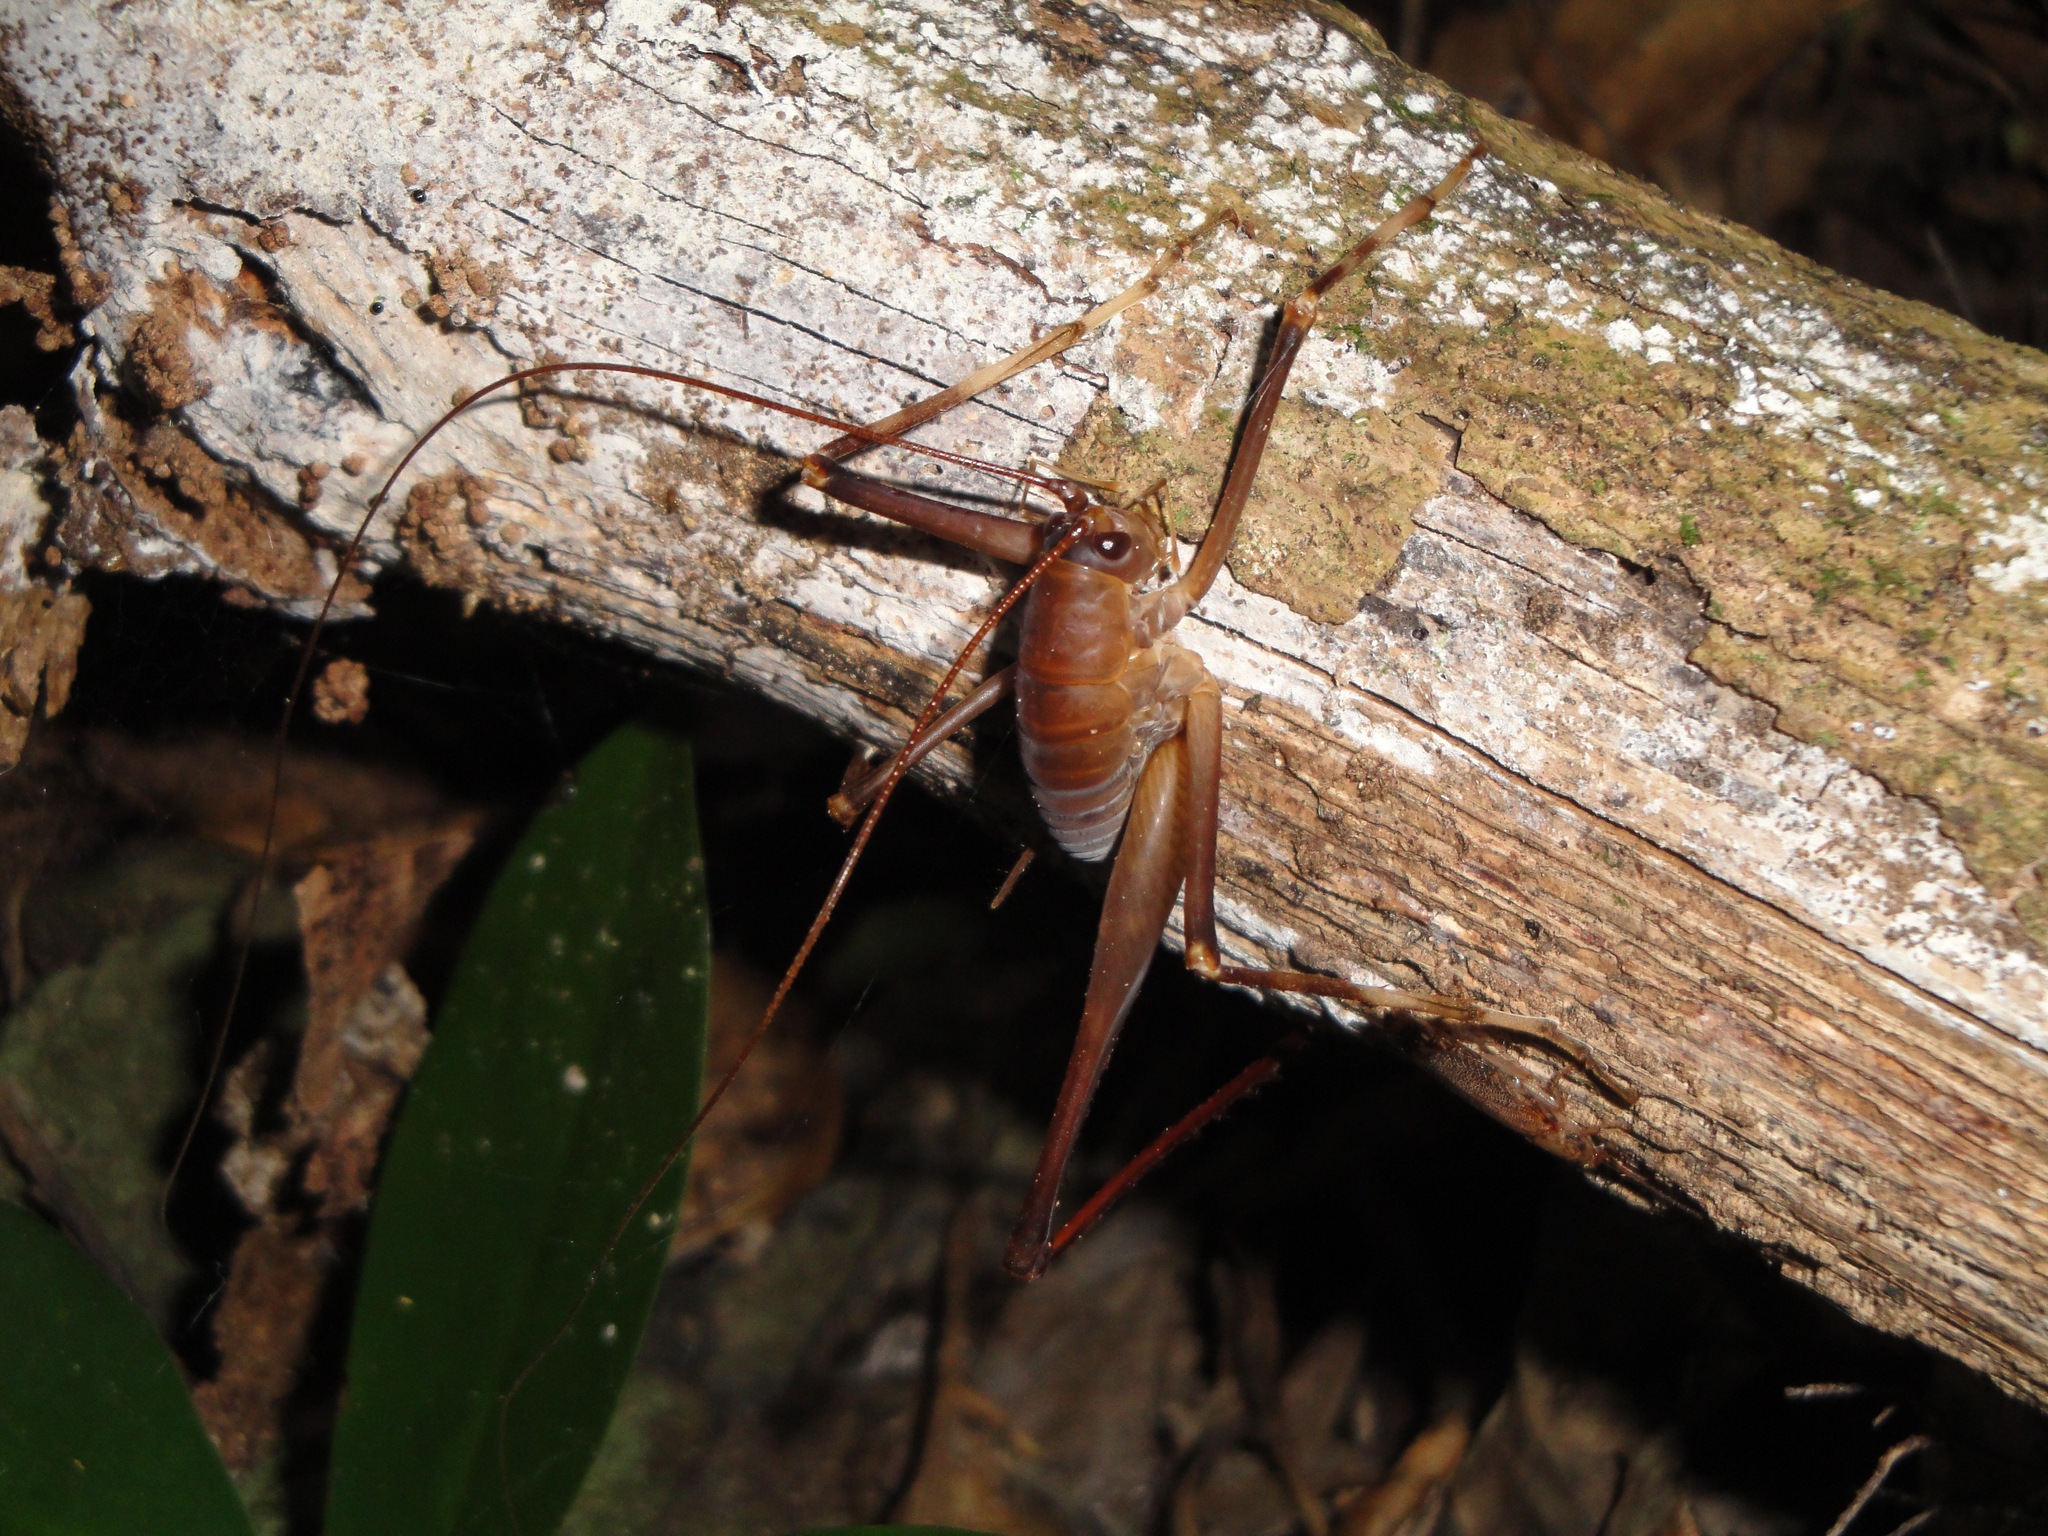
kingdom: Animalia
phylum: Arthropoda
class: Insecta
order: Orthoptera
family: Rhaphidophoridae
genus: Pachyrhamma
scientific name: Pachyrhamma longipes
